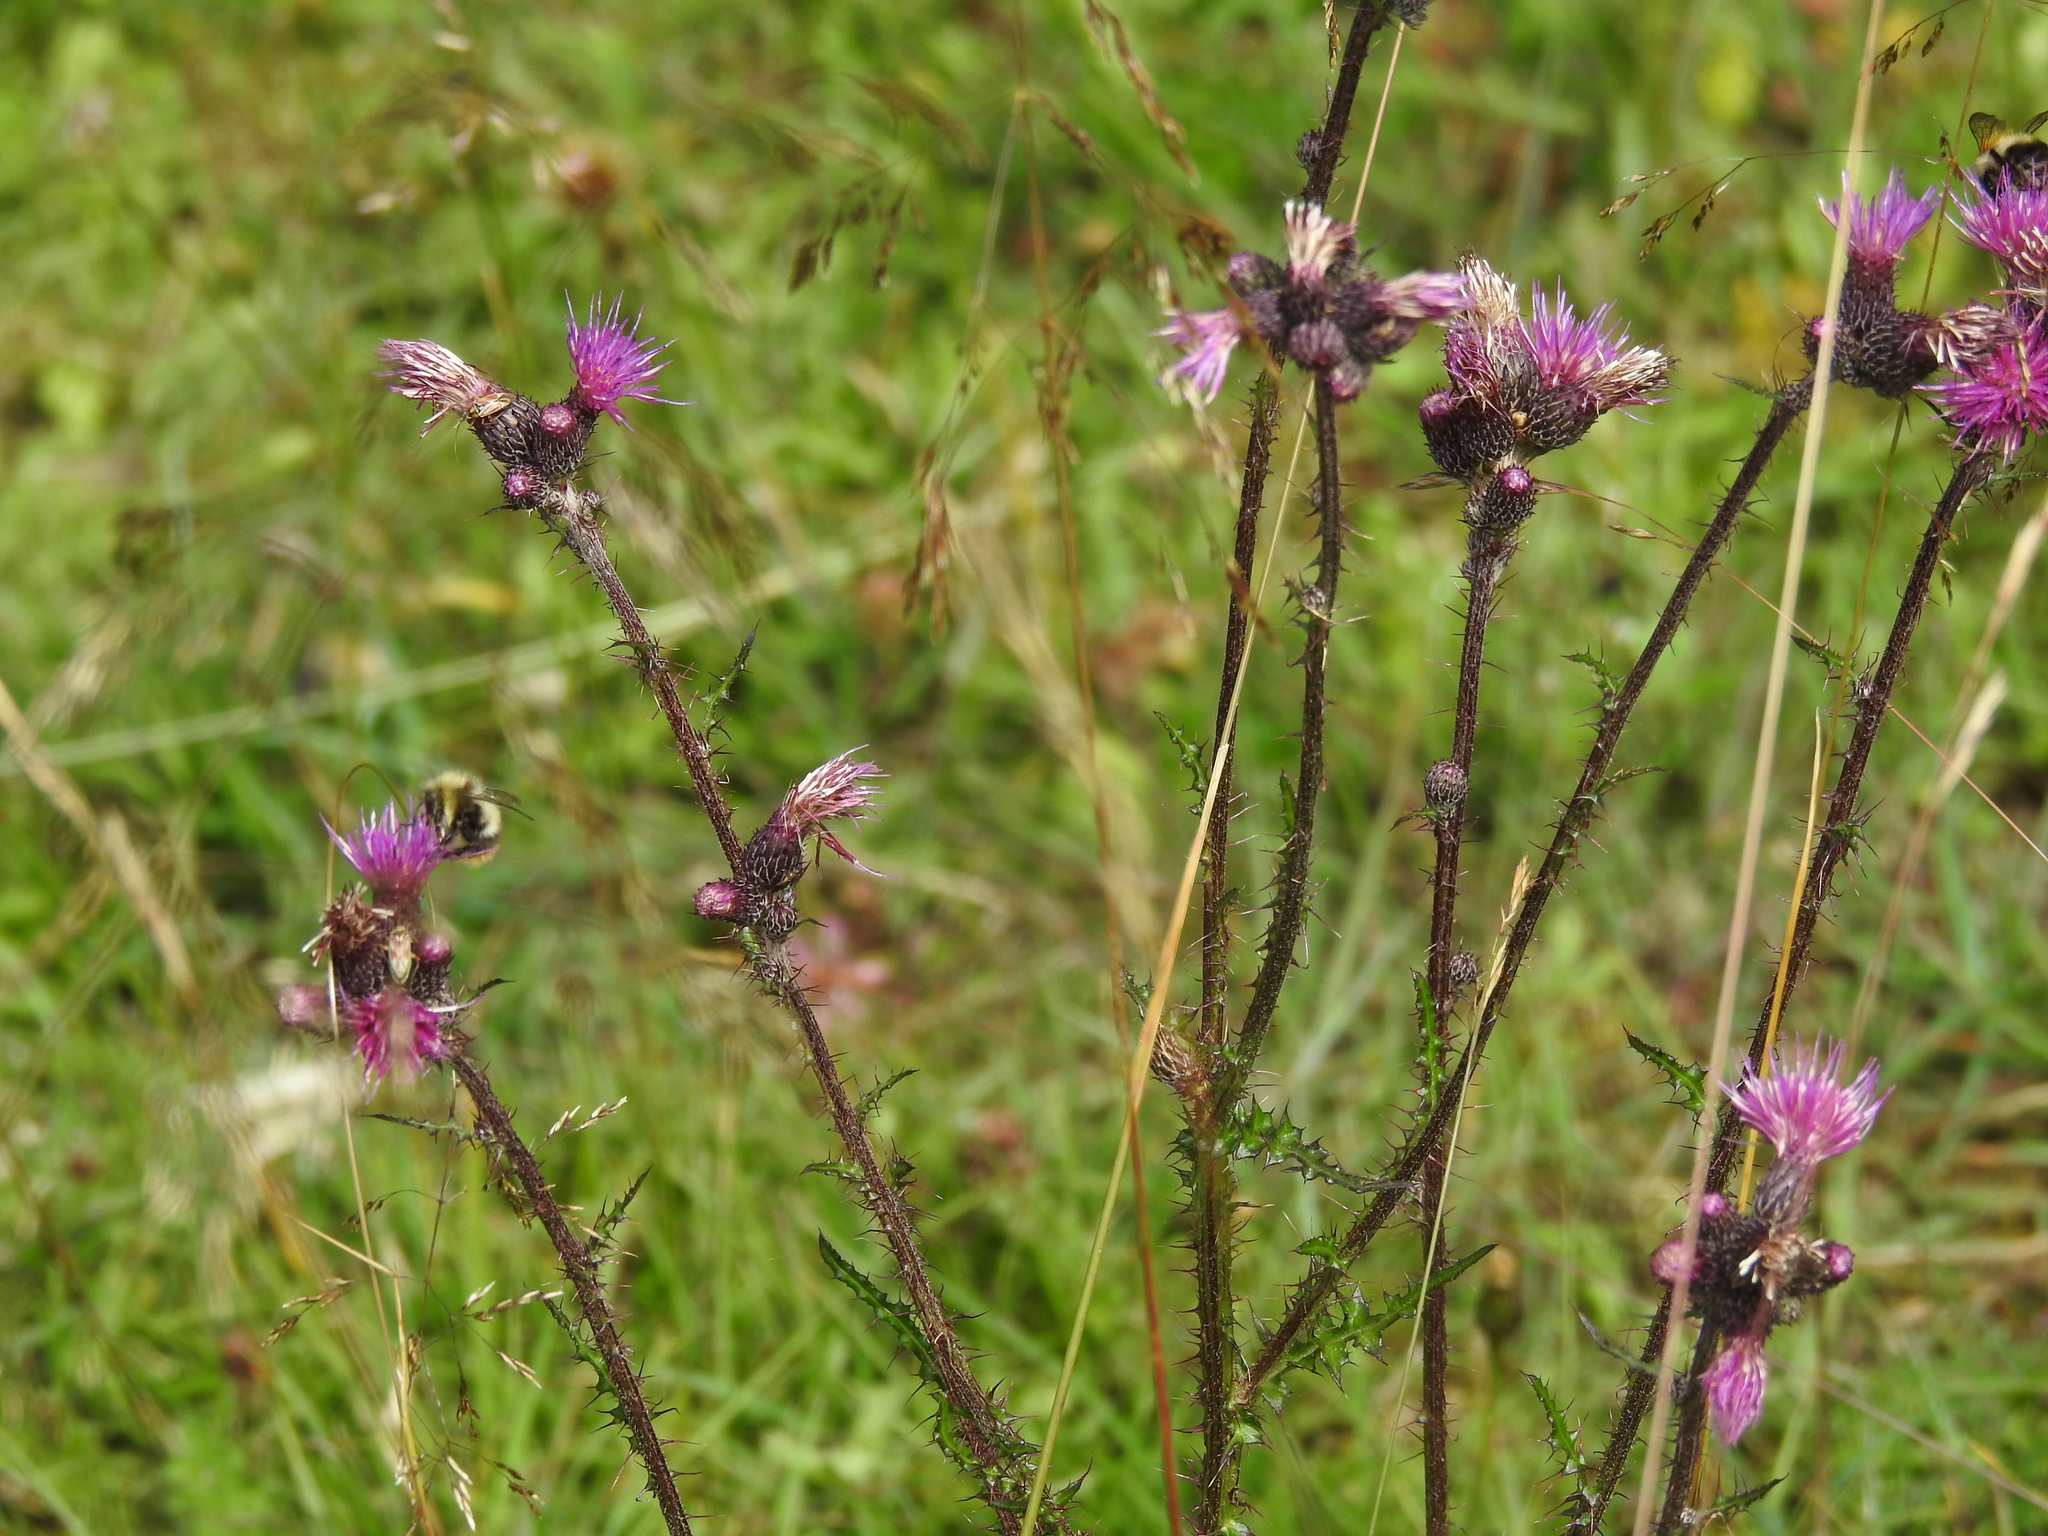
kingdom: Plantae
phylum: Tracheophyta
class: Magnoliopsida
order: Asterales
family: Asteraceae
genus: Cirsium
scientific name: Cirsium palustre
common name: Marsh thistle
